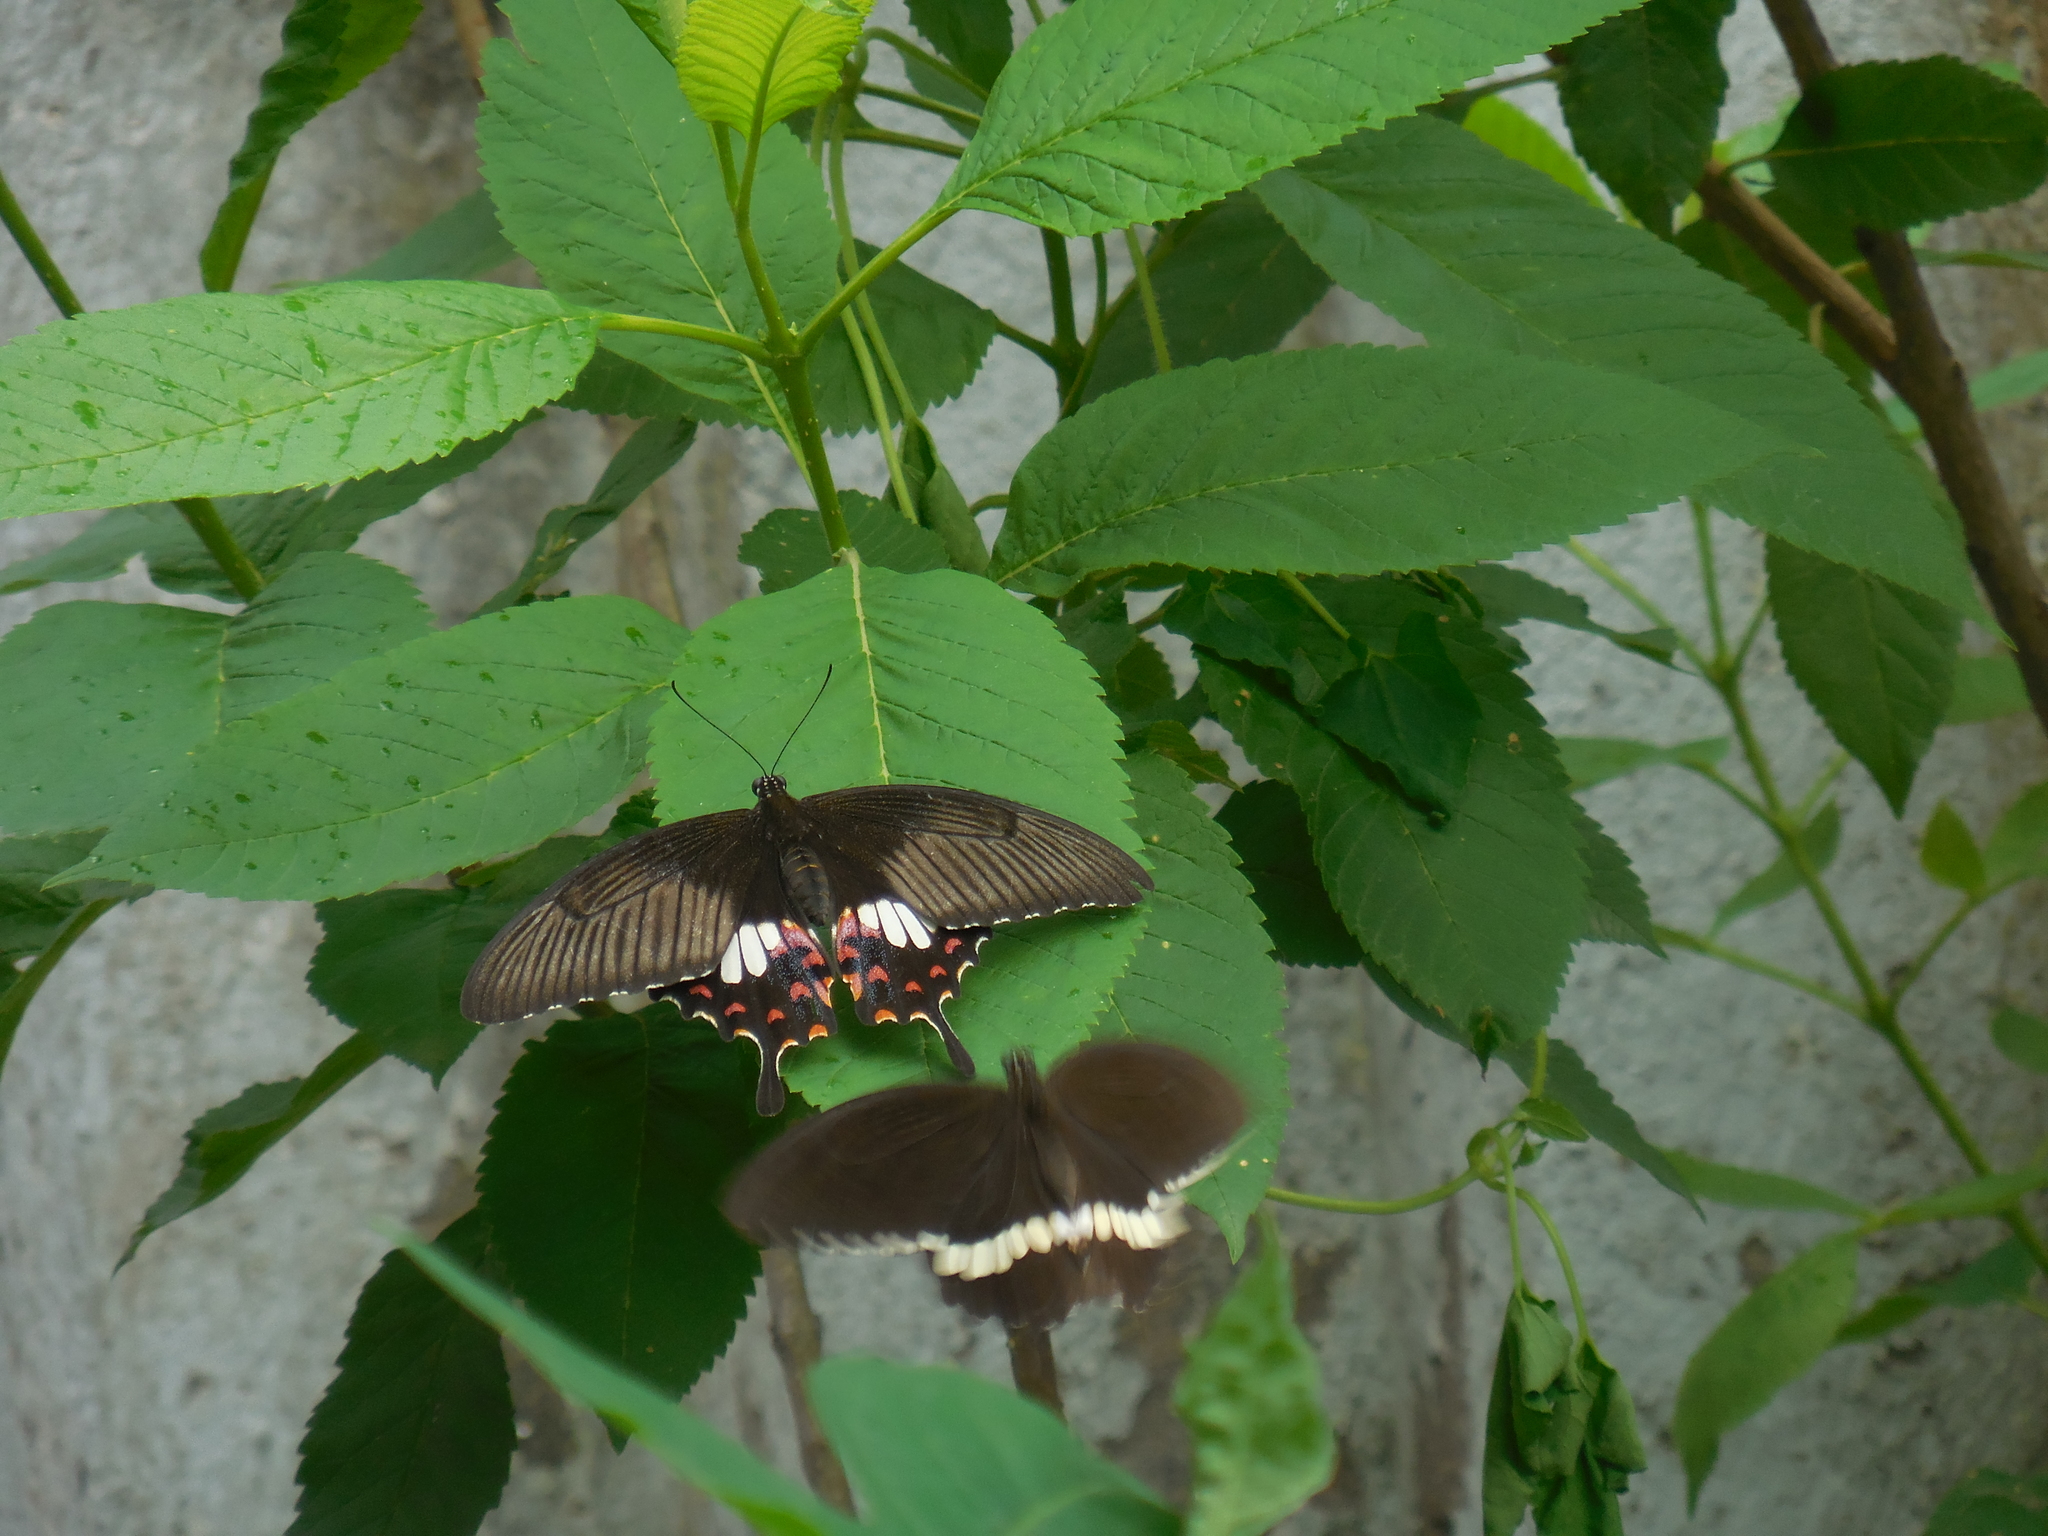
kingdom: Animalia
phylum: Arthropoda
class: Insecta
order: Lepidoptera
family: Papilionidae
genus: Papilio
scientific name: Papilio polytes
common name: Common mormon
